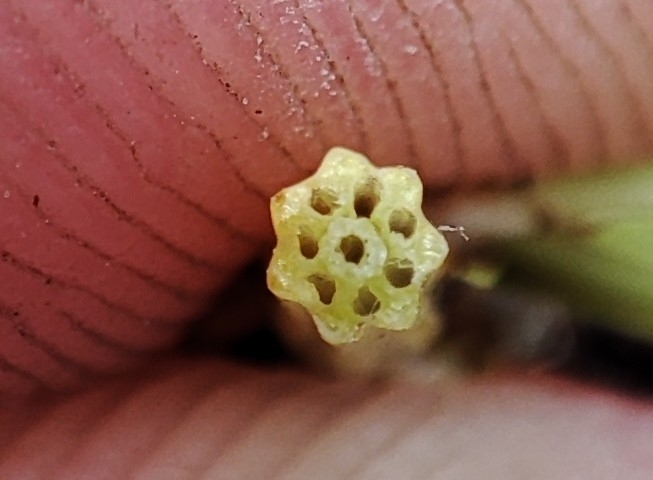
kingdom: Plantae
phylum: Tracheophyta
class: Polypodiopsida
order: Equisetales
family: Equisetaceae
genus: Equisetum
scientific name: Equisetum palustre
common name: Marsh horsetail
